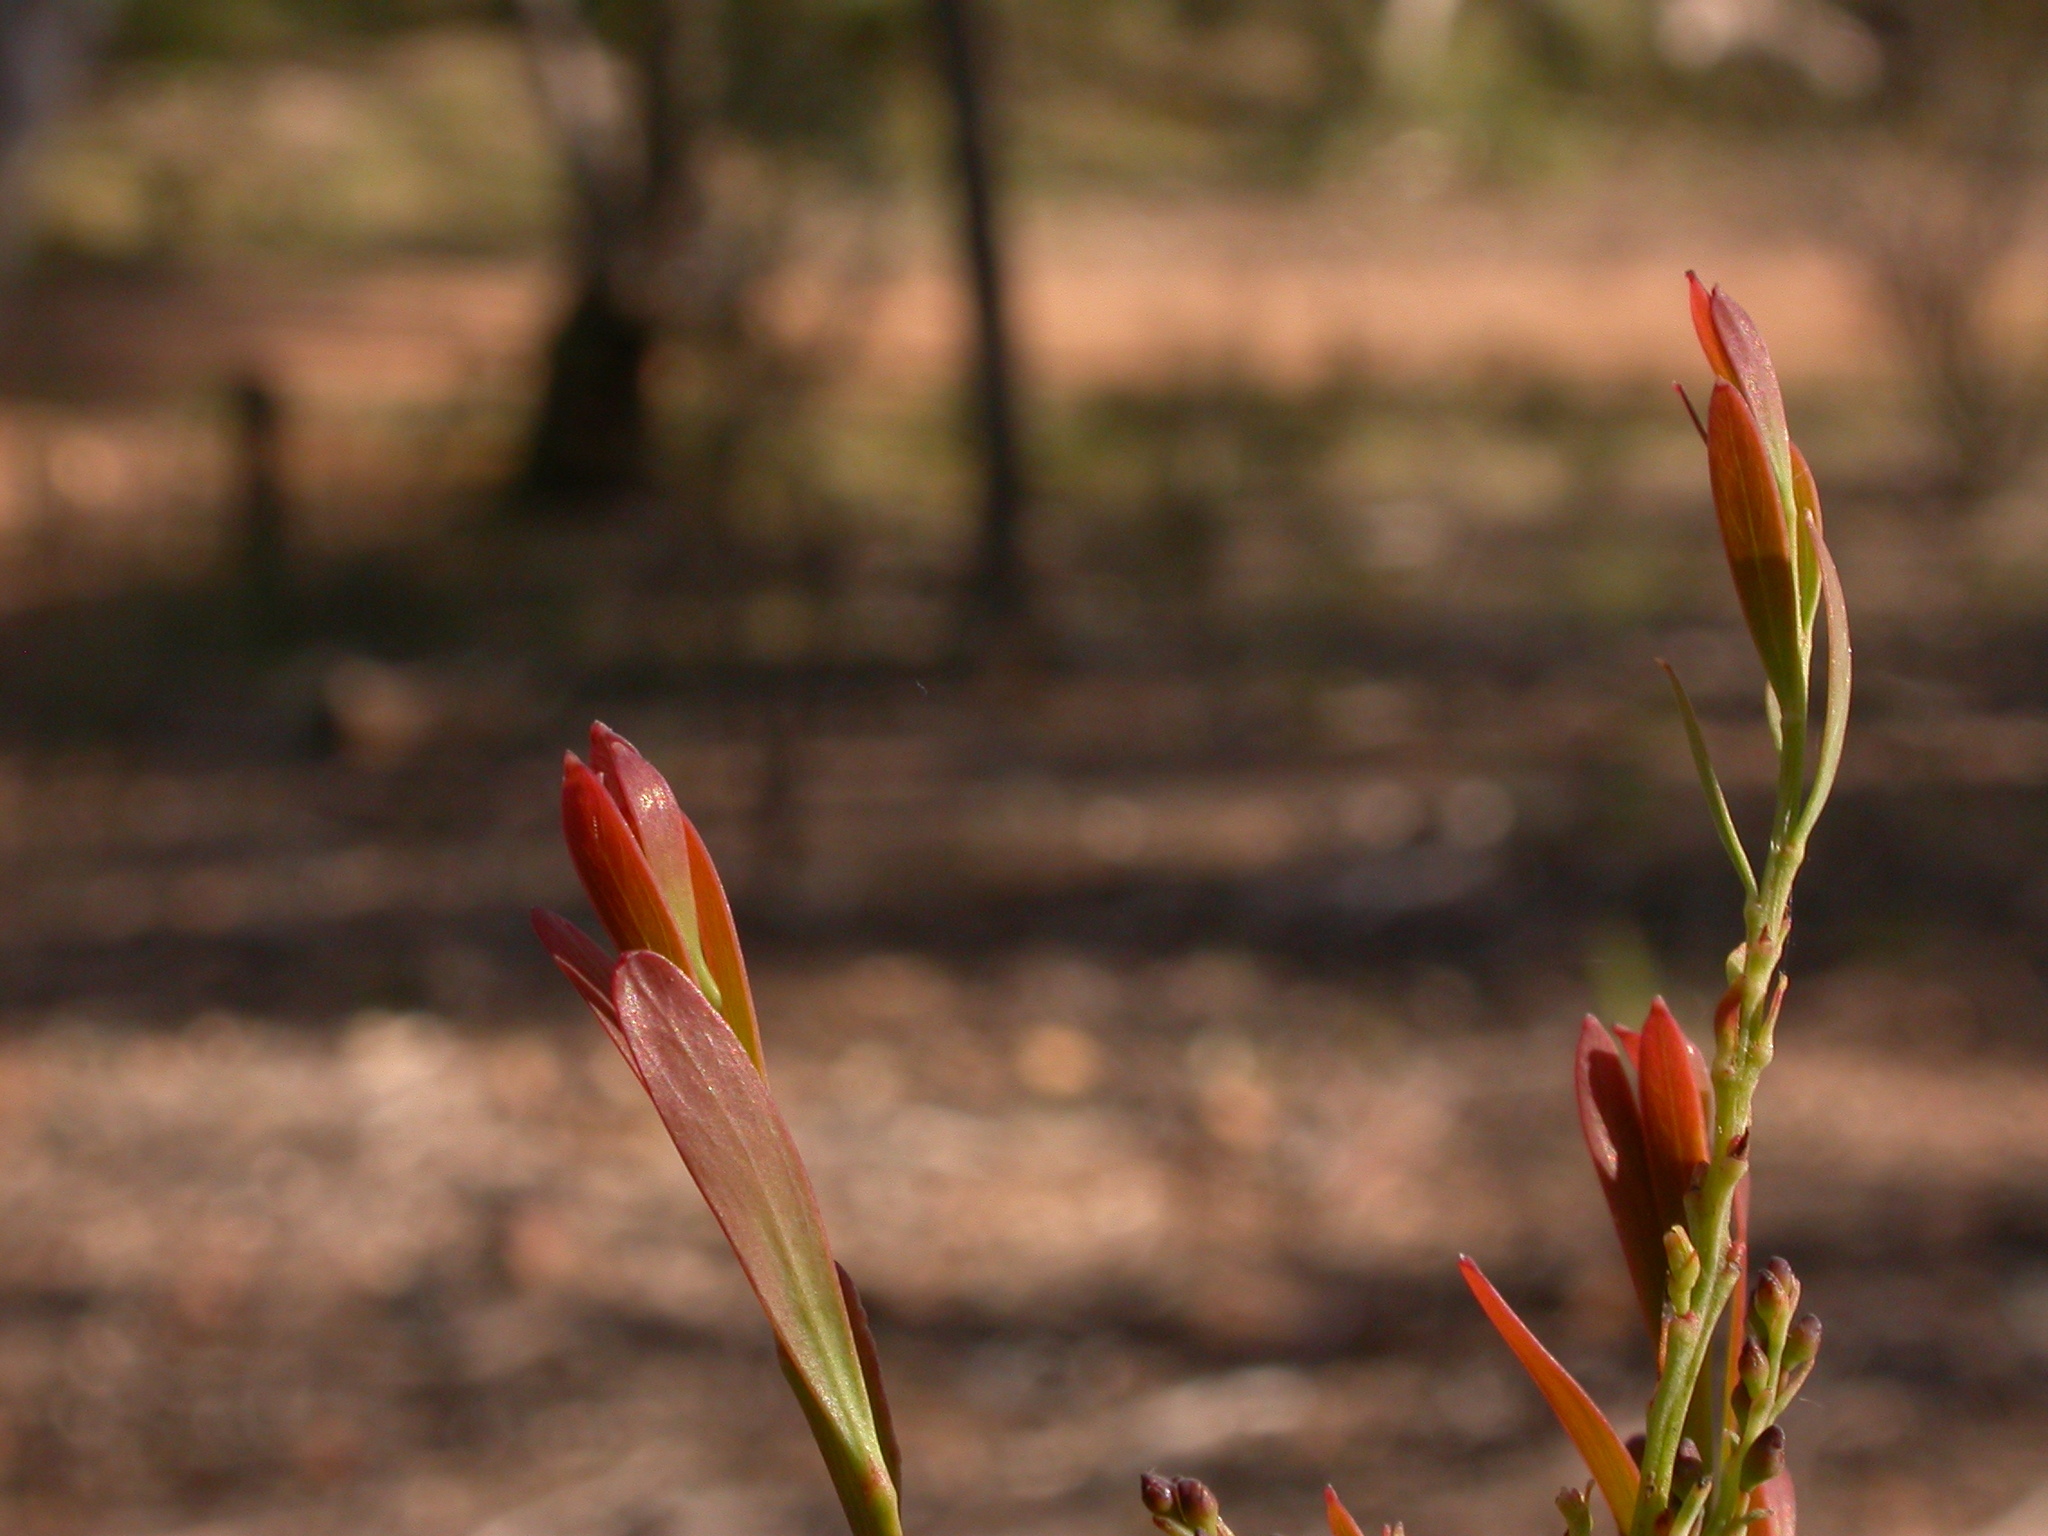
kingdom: Plantae
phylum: Tracheophyta
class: Magnoliopsida
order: Fabales
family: Fabaceae
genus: Daviesia
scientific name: Daviesia mimosoides
